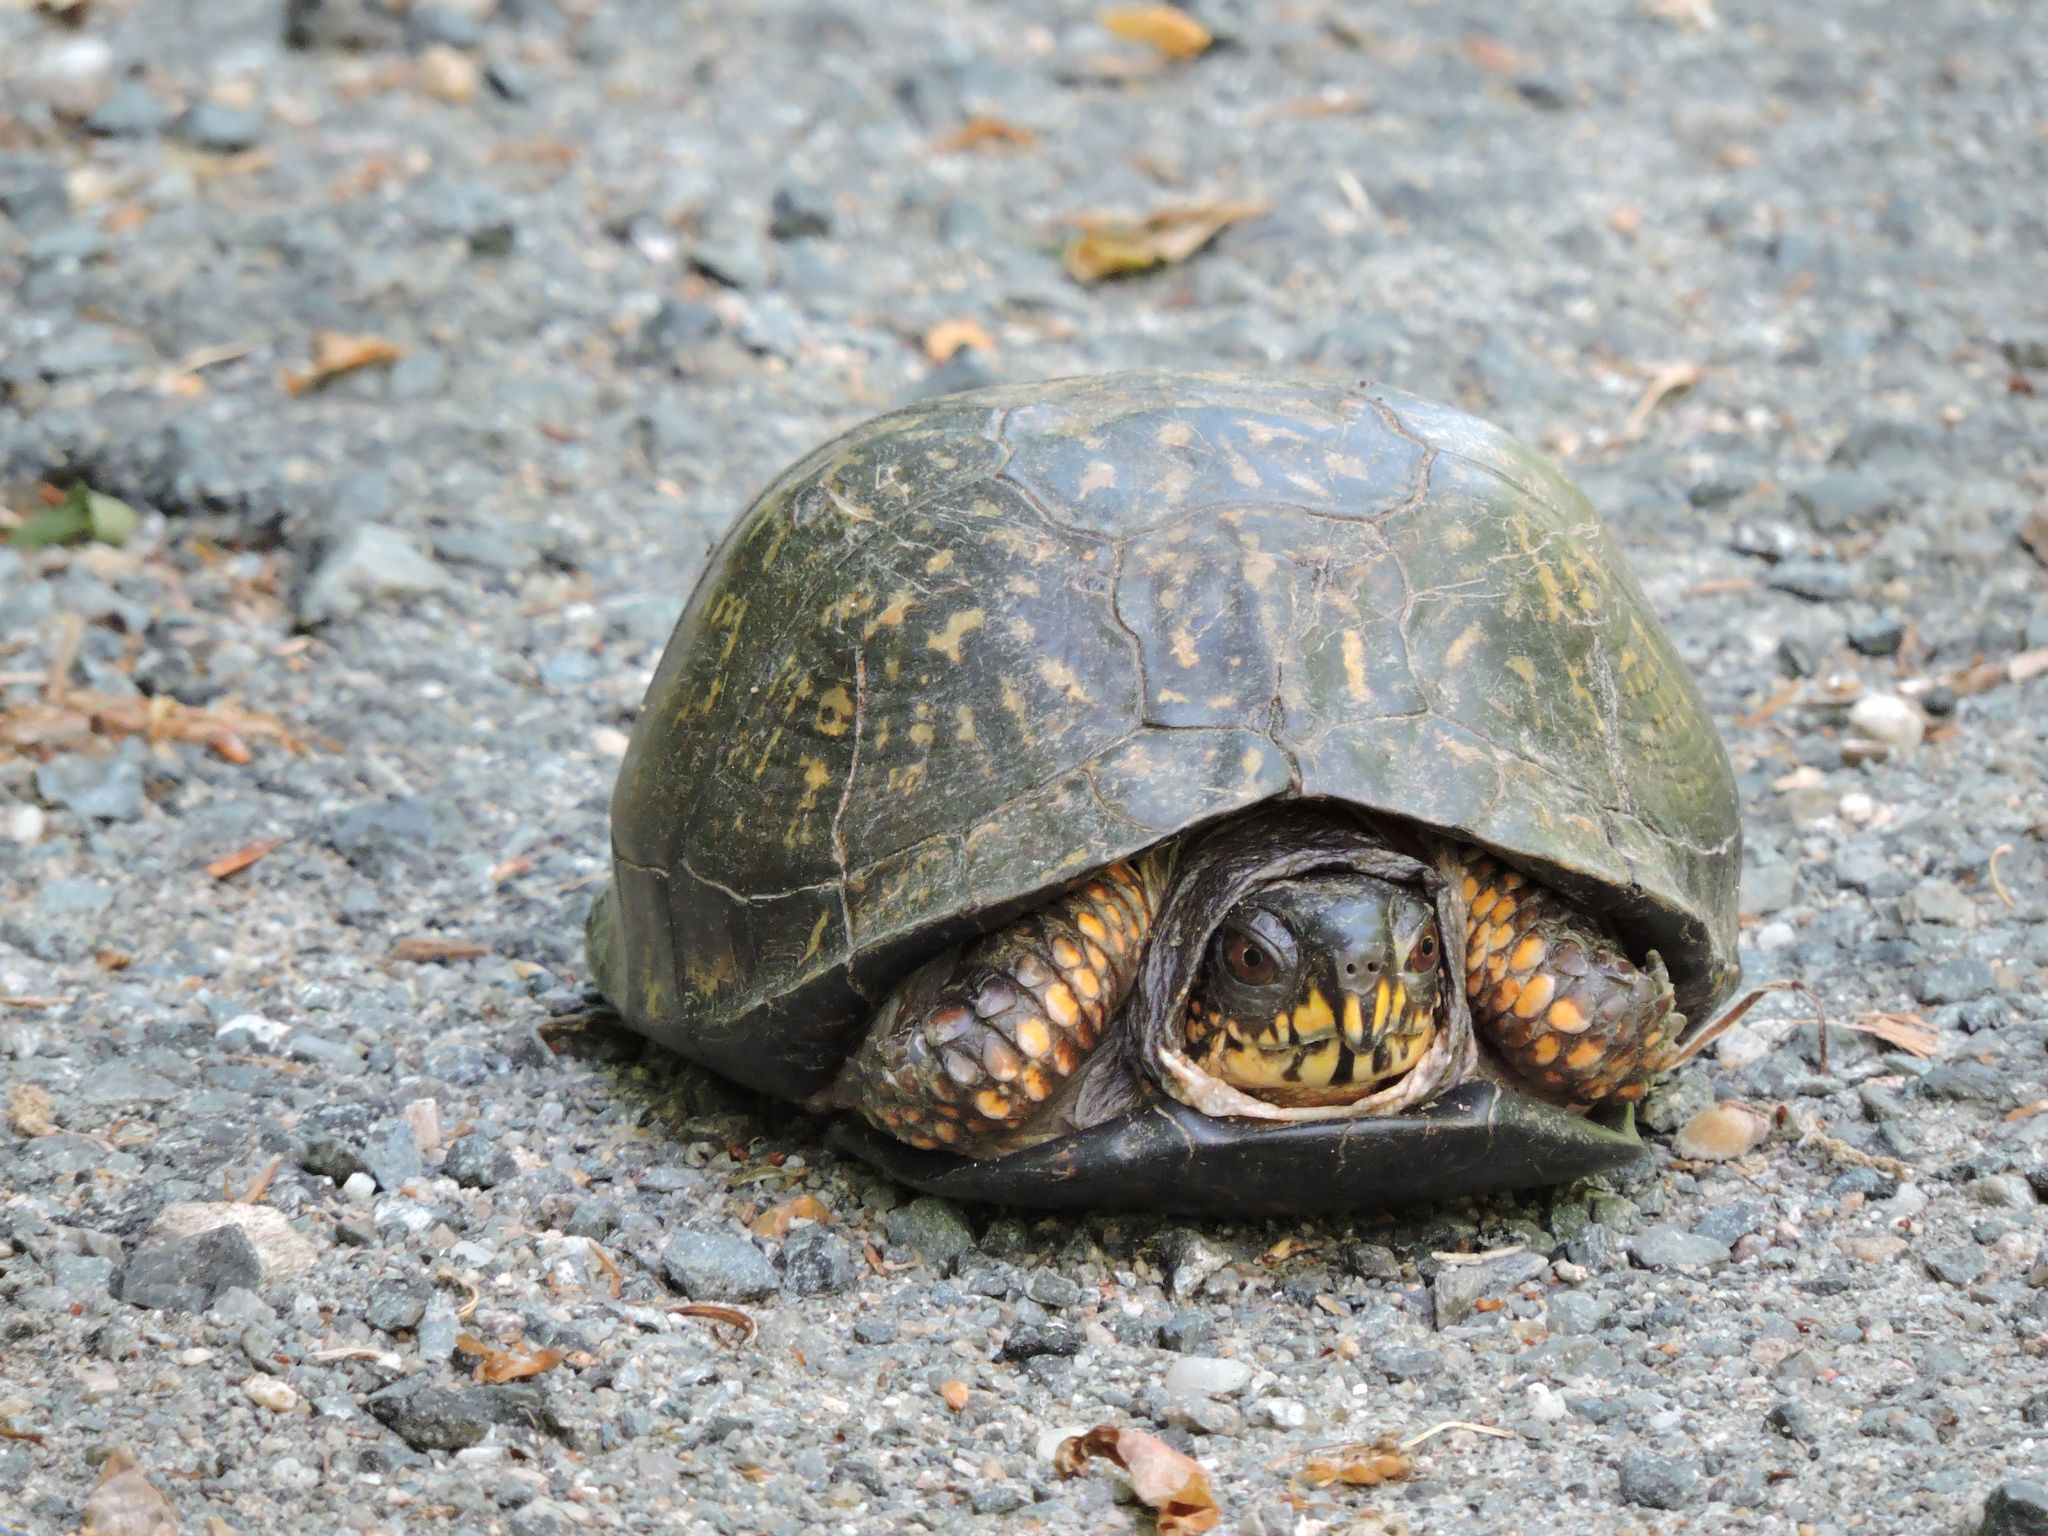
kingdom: Animalia
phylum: Chordata
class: Testudines
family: Emydidae
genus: Terrapene
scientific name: Terrapene carolina
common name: Common box turtle
